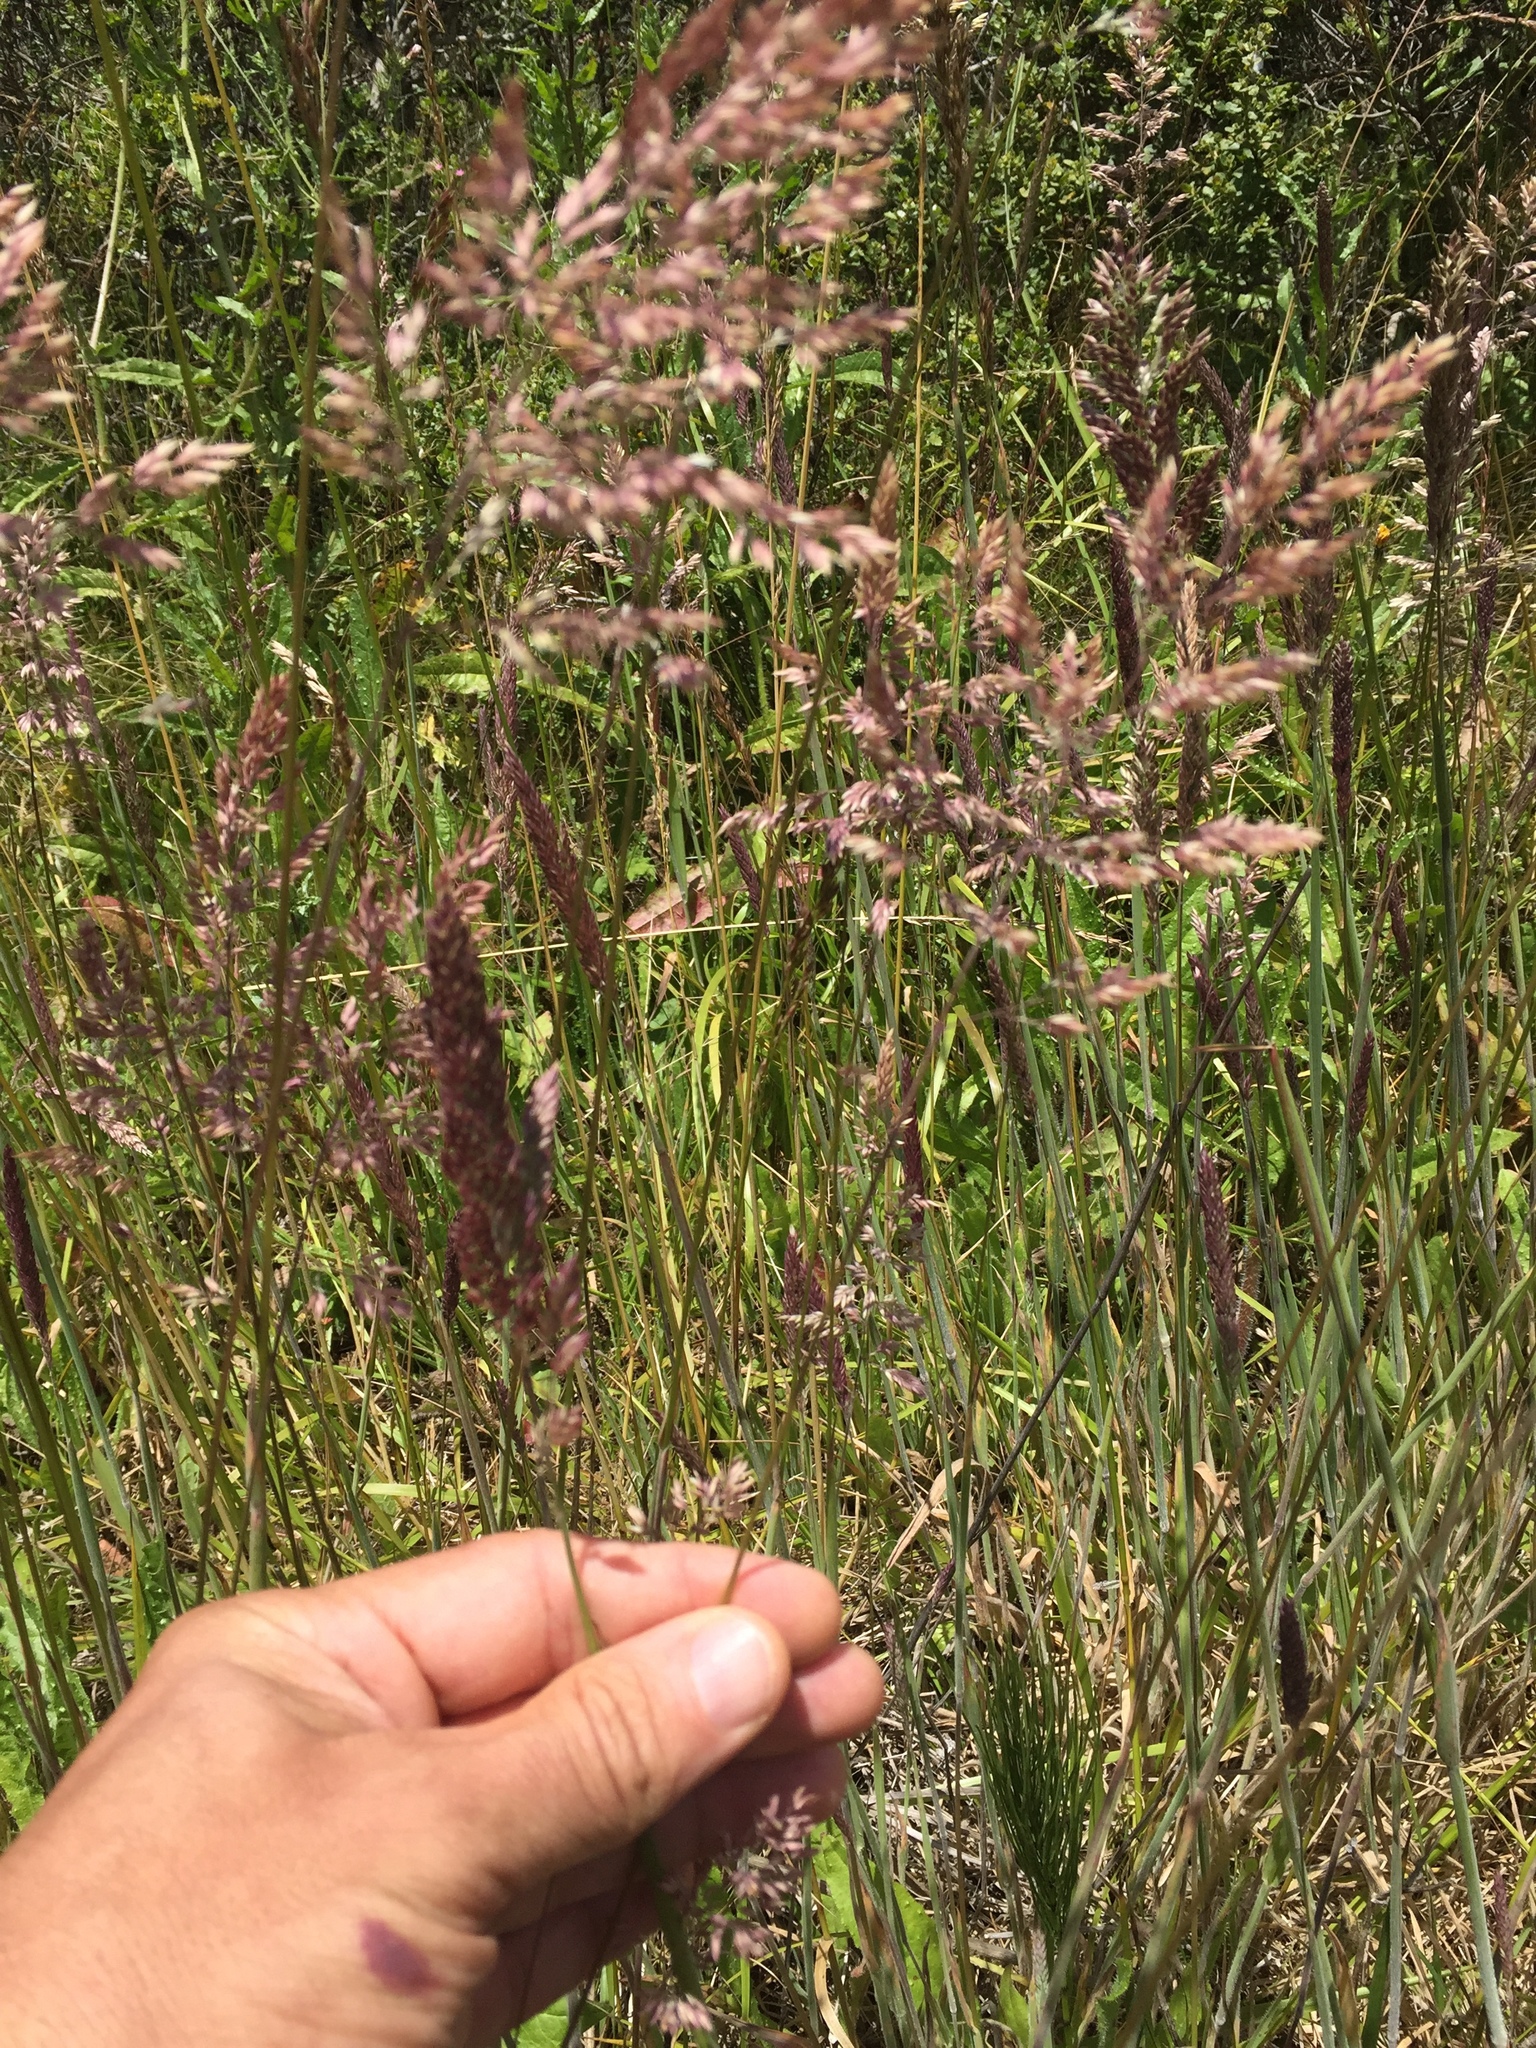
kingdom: Plantae
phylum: Tracheophyta
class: Liliopsida
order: Poales
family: Poaceae
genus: Holcus
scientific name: Holcus lanatus
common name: Yorkshire-fog
